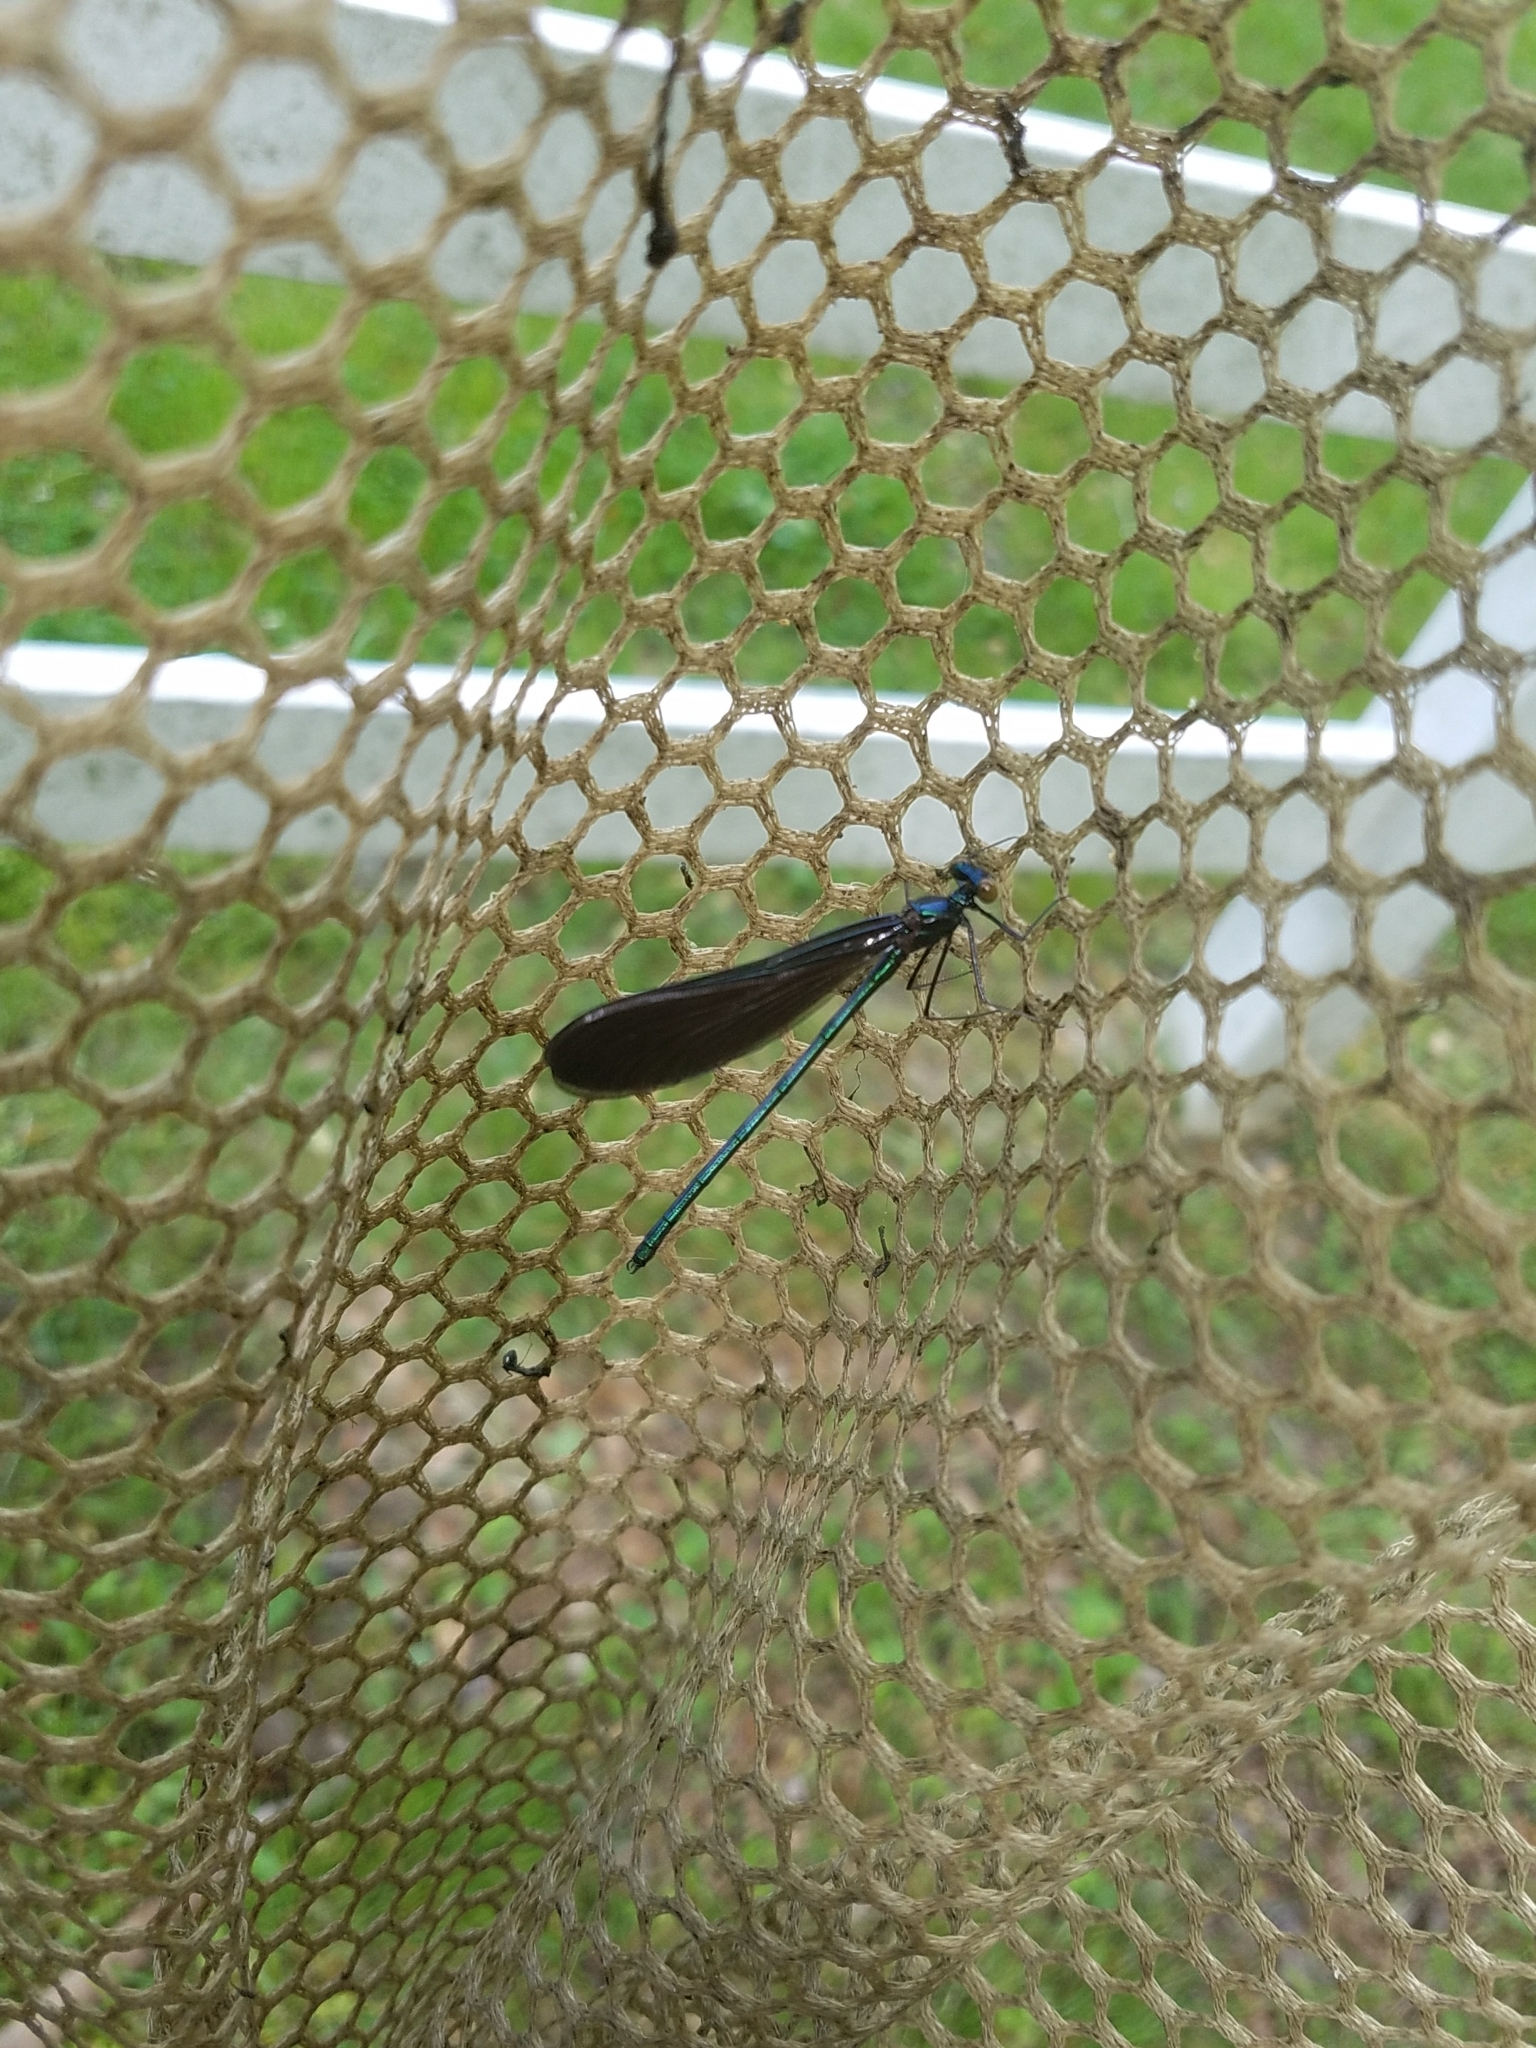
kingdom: Animalia
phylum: Arthropoda
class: Insecta
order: Odonata
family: Calopterygidae
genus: Calopteryx
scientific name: Calopteryx maculata
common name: Ebony jewelwing
